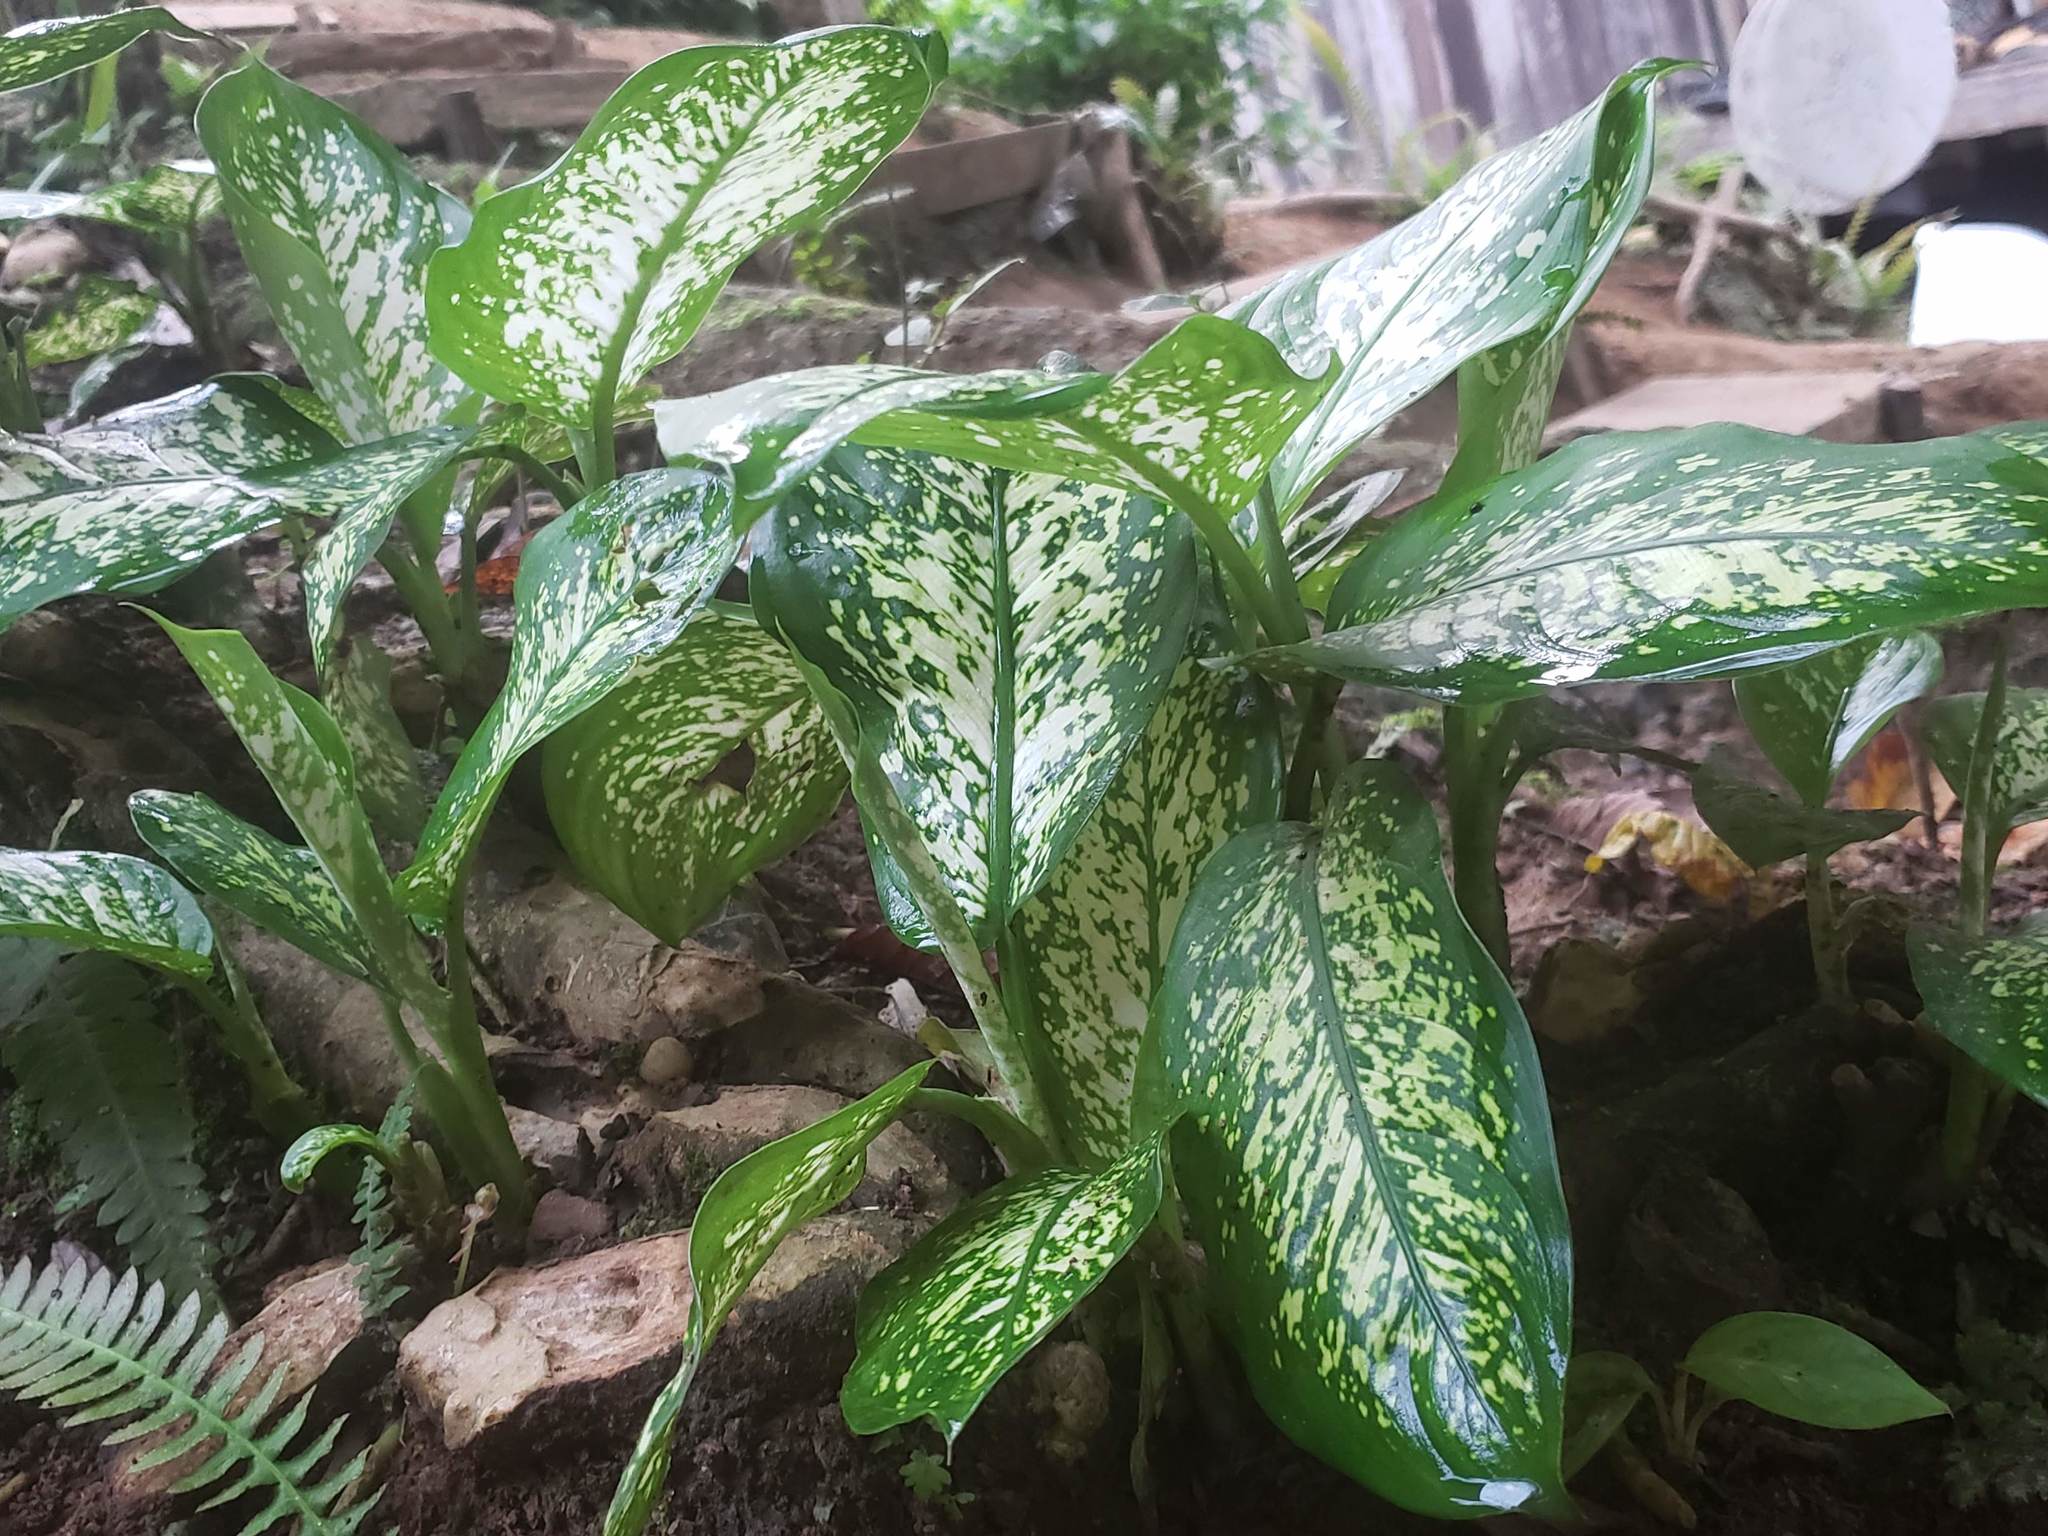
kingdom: Plantae
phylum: Tracheophyta
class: Liliopsida
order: Alismatales
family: Araceae
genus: Dieffenbachia
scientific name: Dieffenbachia seguine
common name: Dumbcane
